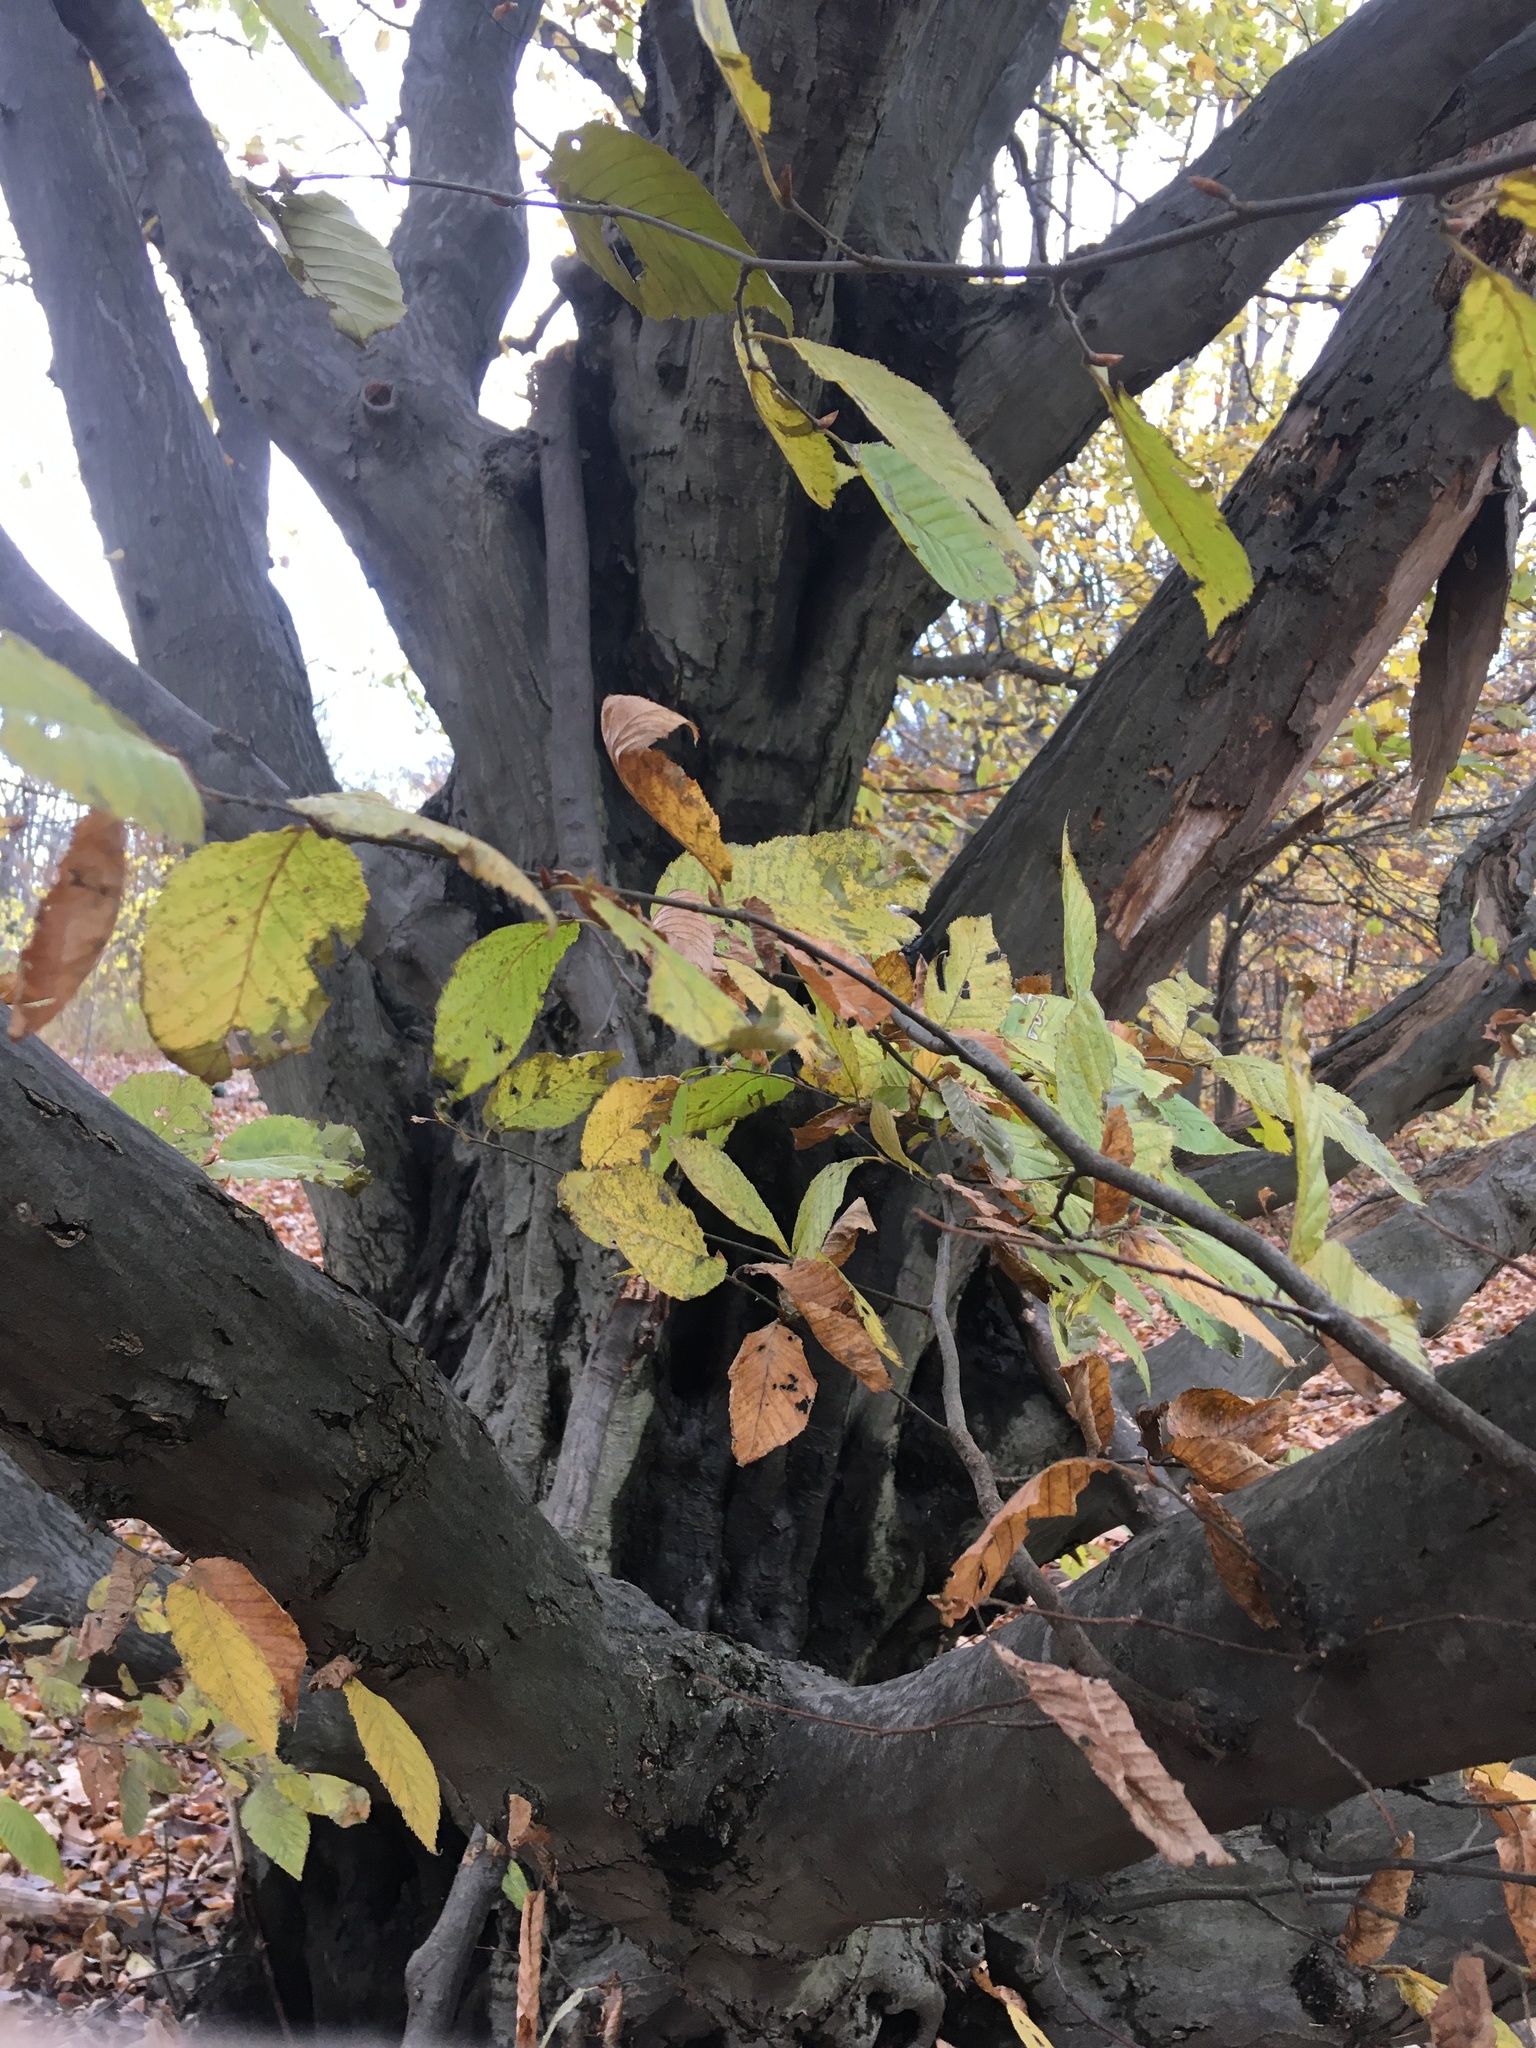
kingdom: Plantae
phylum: Tracheophyta
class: Magnoliopsida
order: Fagales
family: Betulaceae
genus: Carpinus
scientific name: Carpinus betulus
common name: Hornbeam
